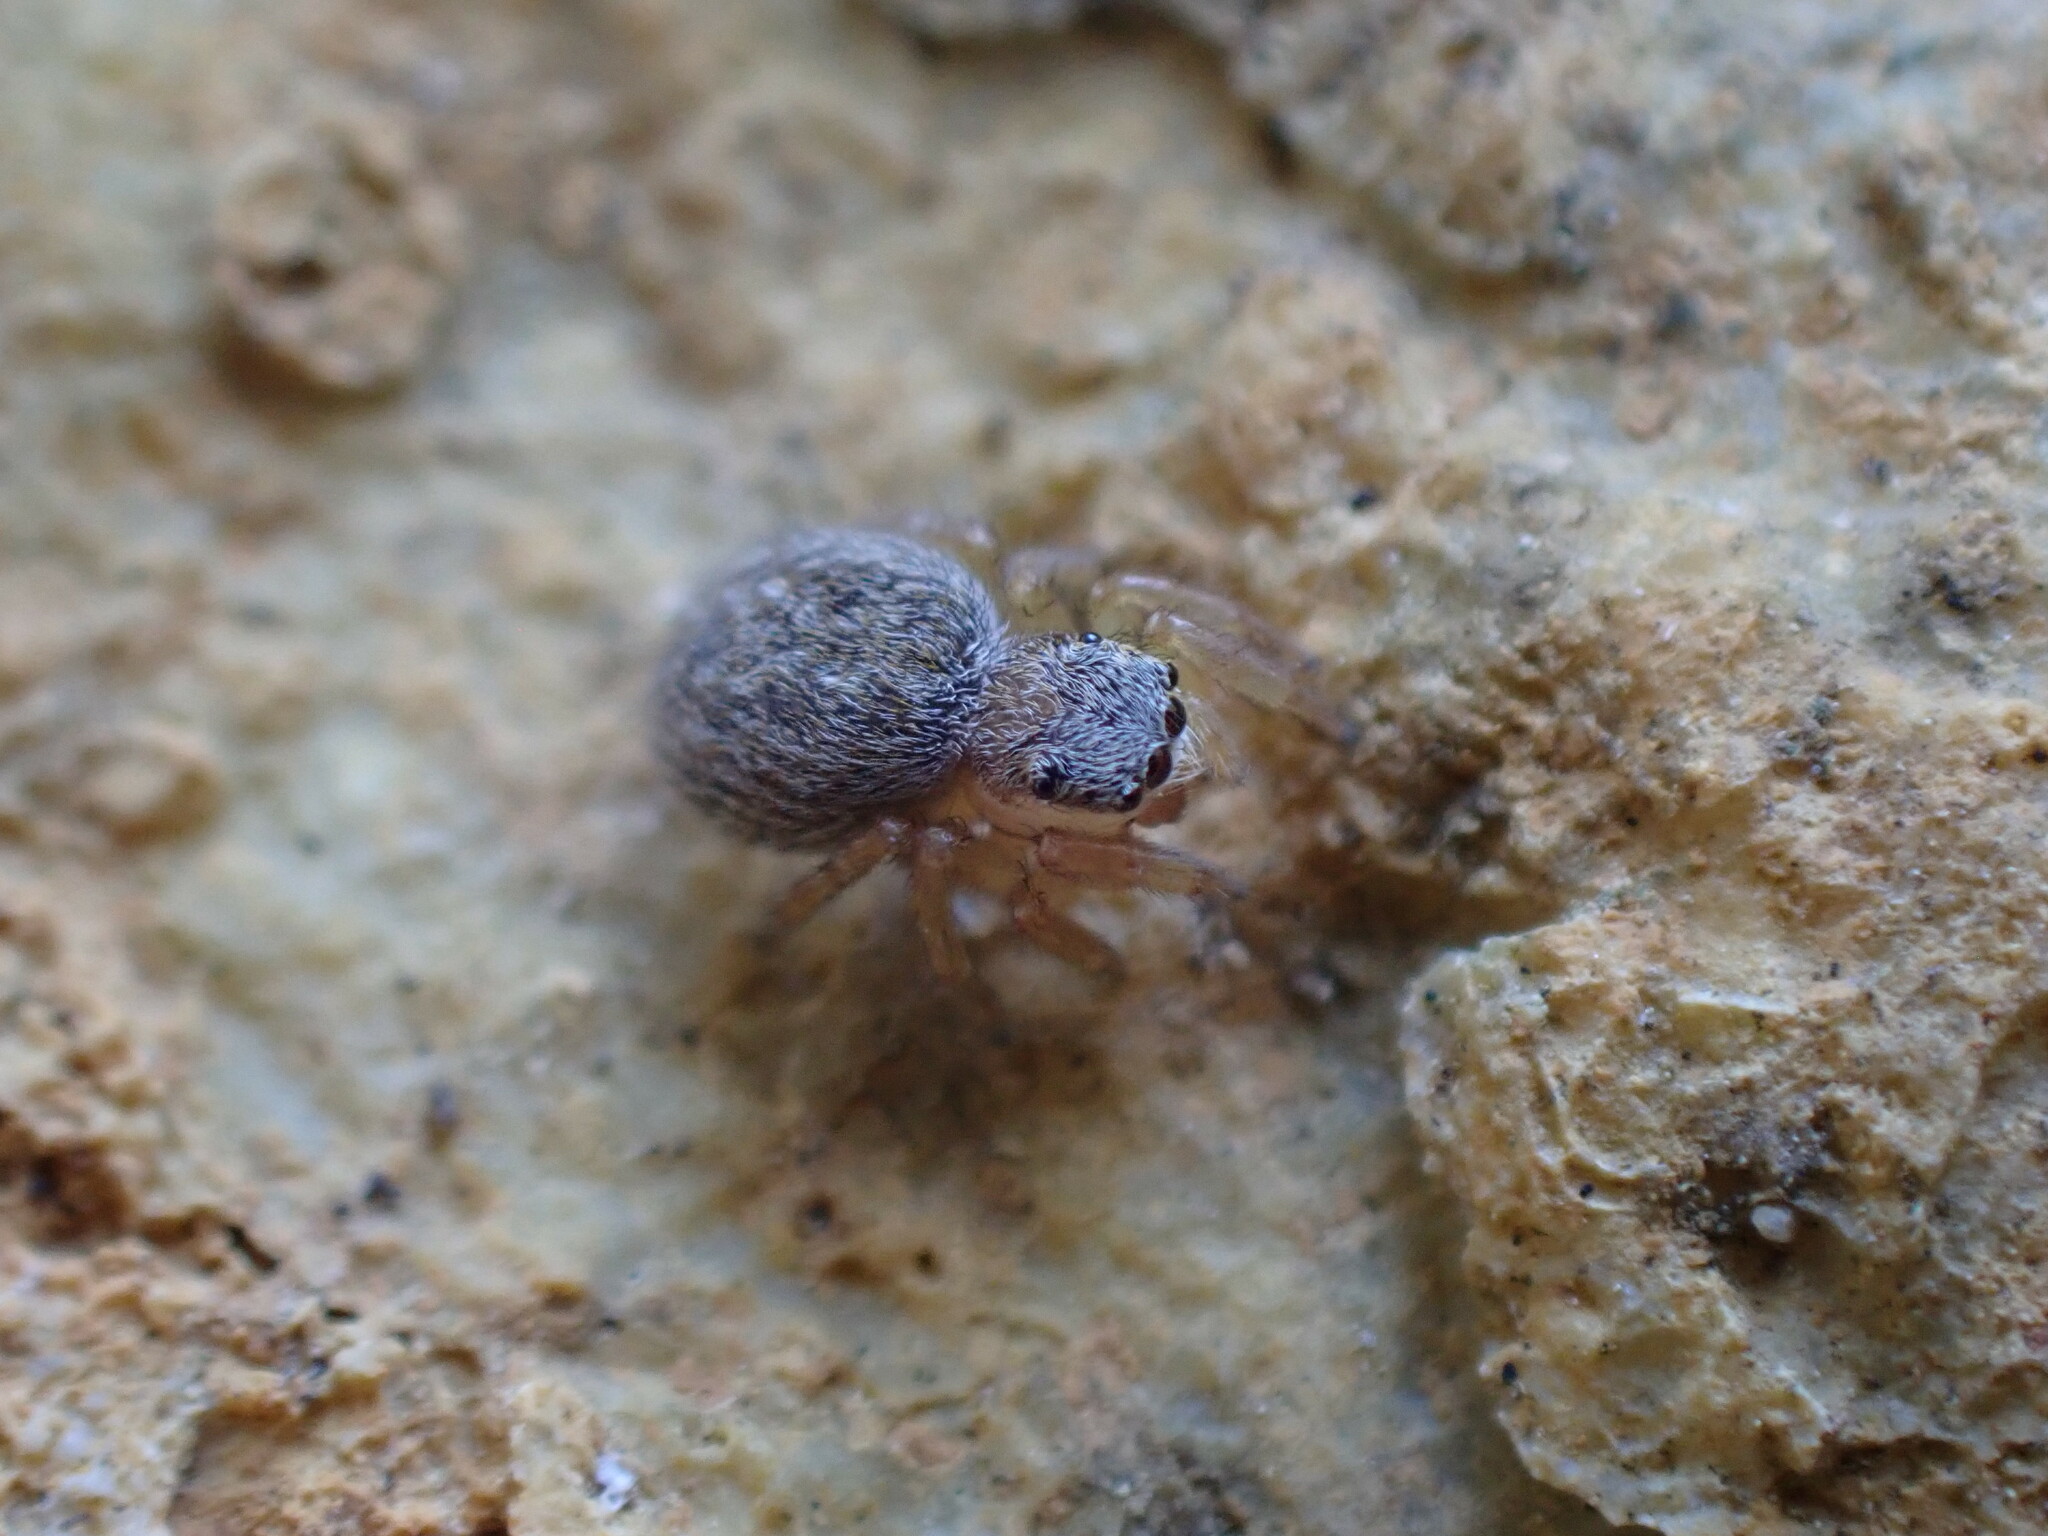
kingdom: Animalia
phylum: Arthropoda
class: Arachnida
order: Araneae
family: Salticidae
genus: Euophrys
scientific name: Euophrys herbigrada
